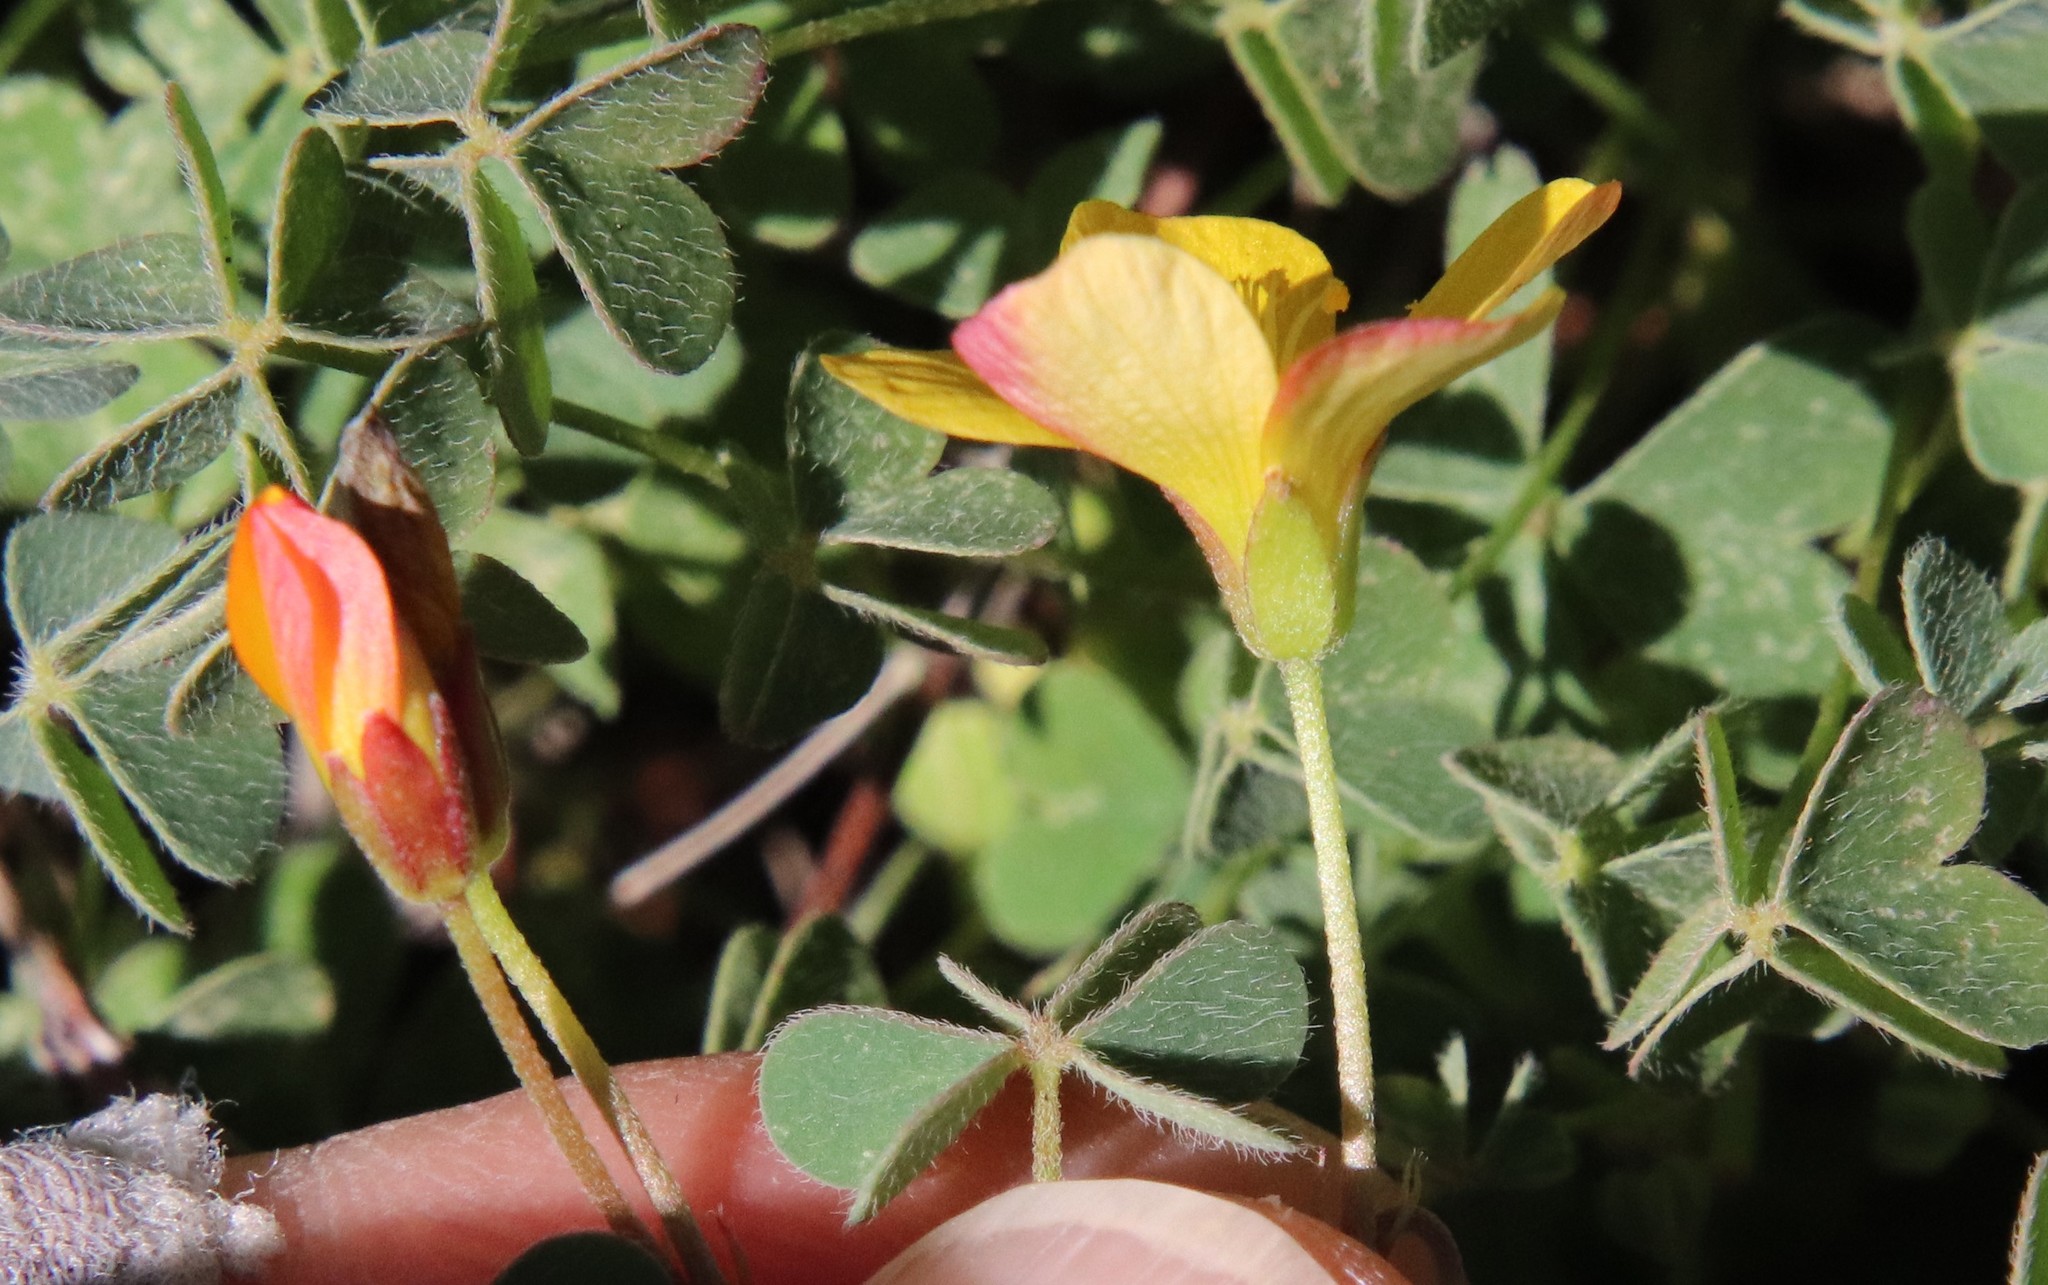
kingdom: Plantae
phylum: Tracheophyta
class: Magnoliopsida
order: Oxalidales
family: Oxalidaceae
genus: Oxalis
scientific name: Oxalis californica
